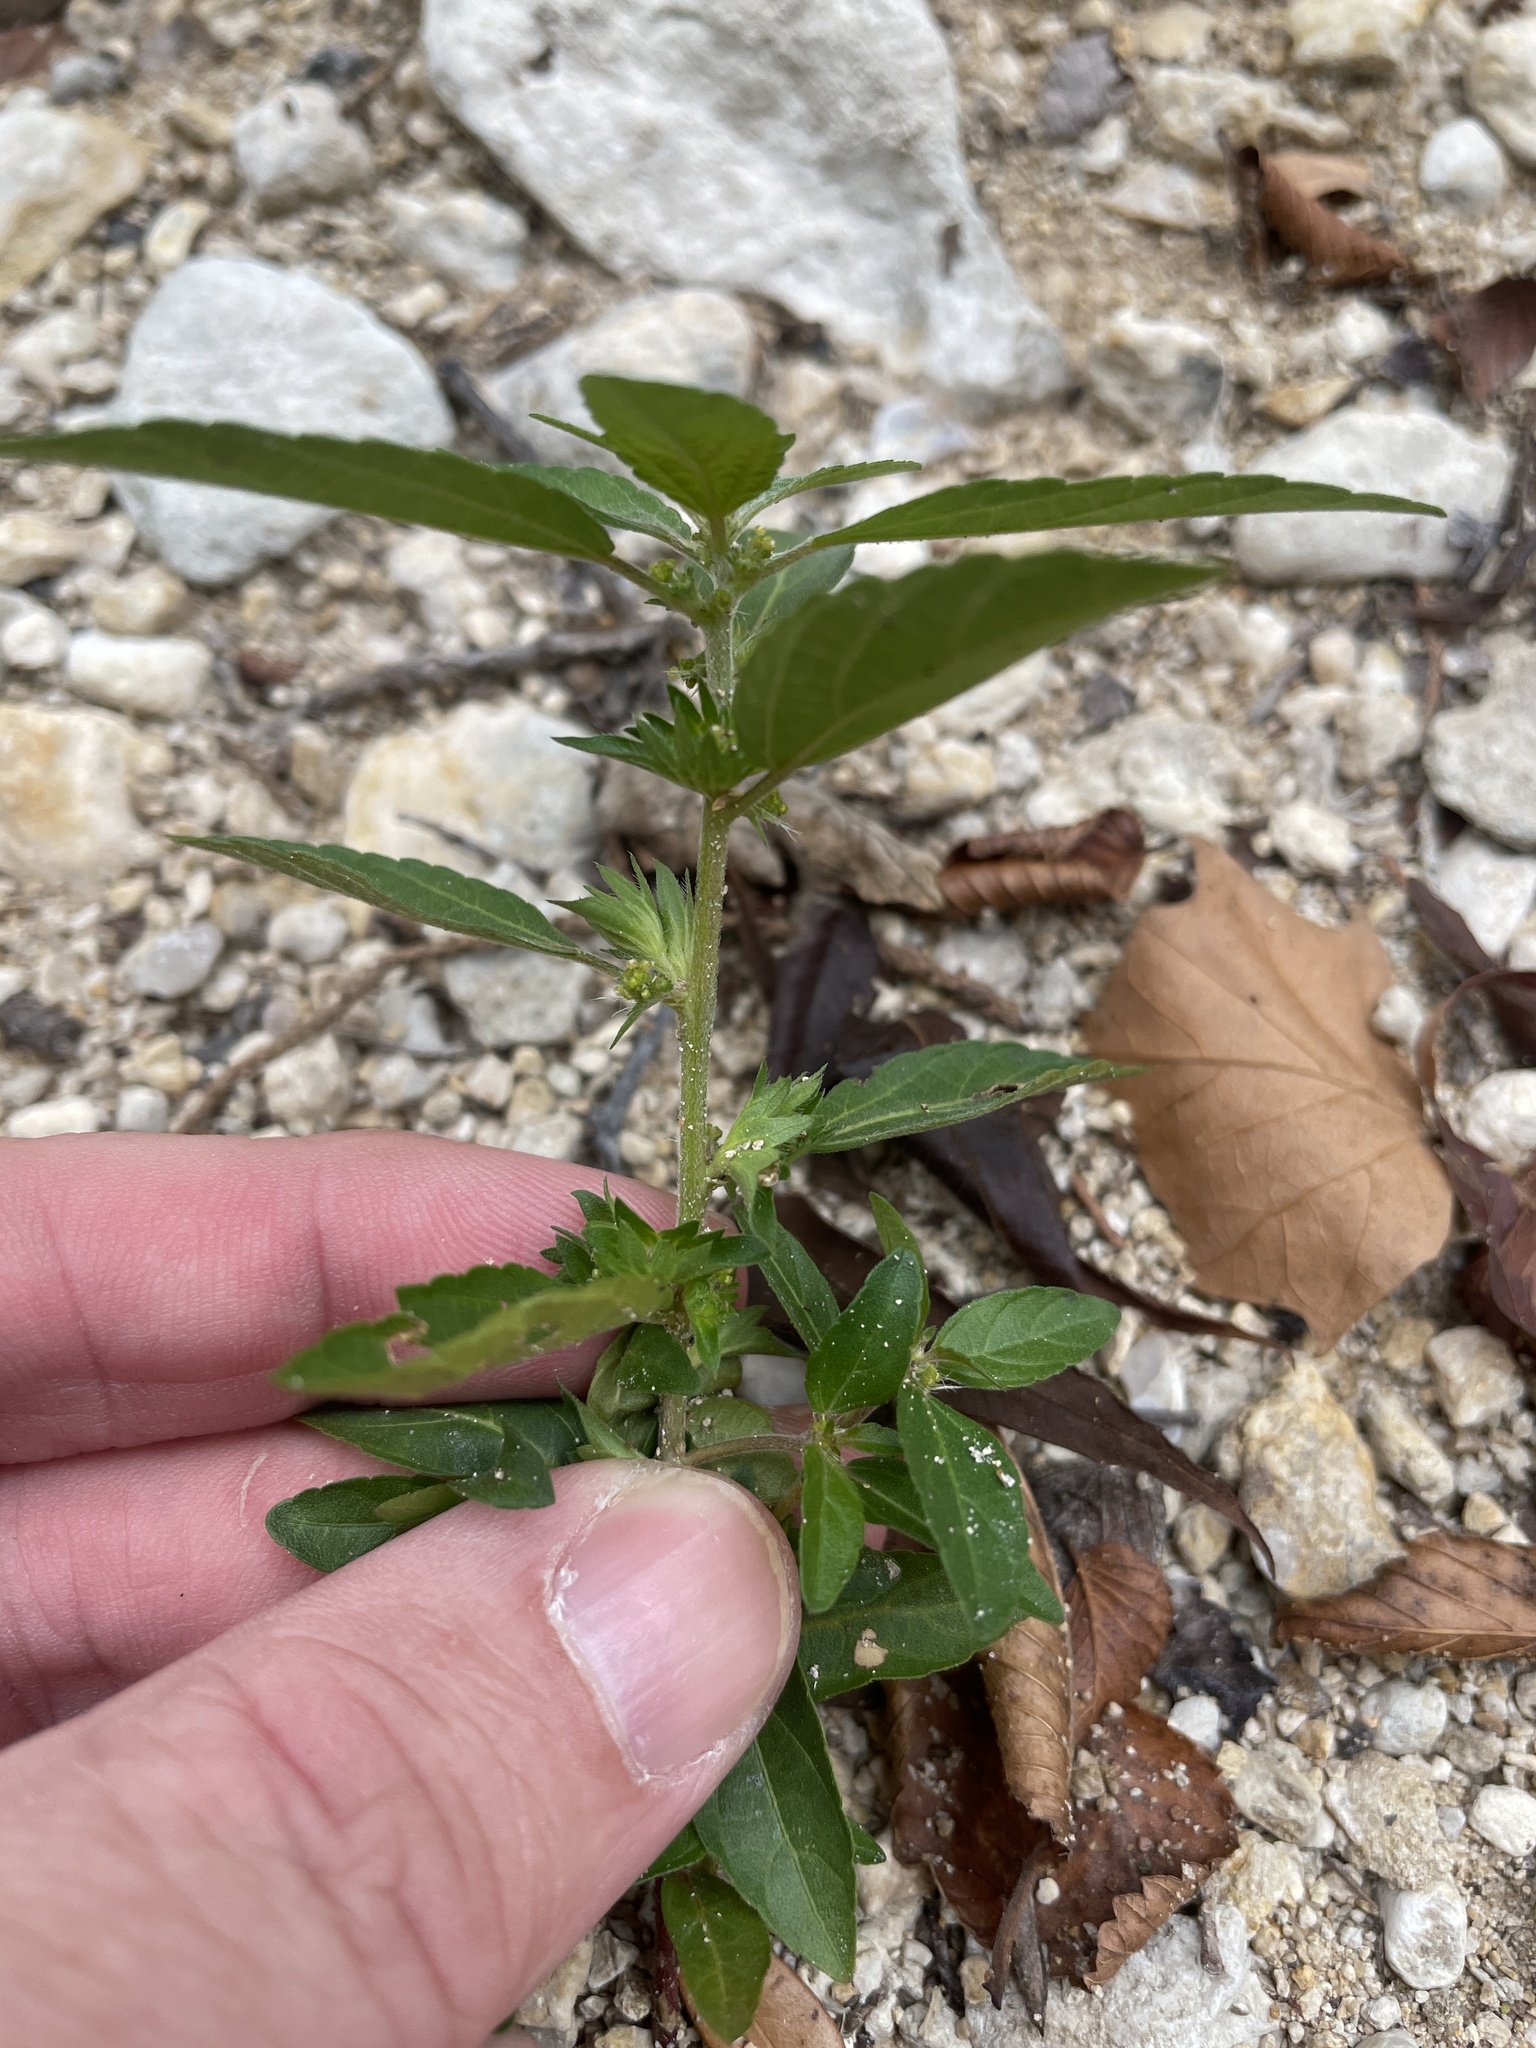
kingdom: Plantae
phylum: Tracheophyta
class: Magnoliopsida
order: Malpighiales
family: Euphorbiaceae
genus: Acalypha
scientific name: Acalypha virginica
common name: Virginia copperleaf
